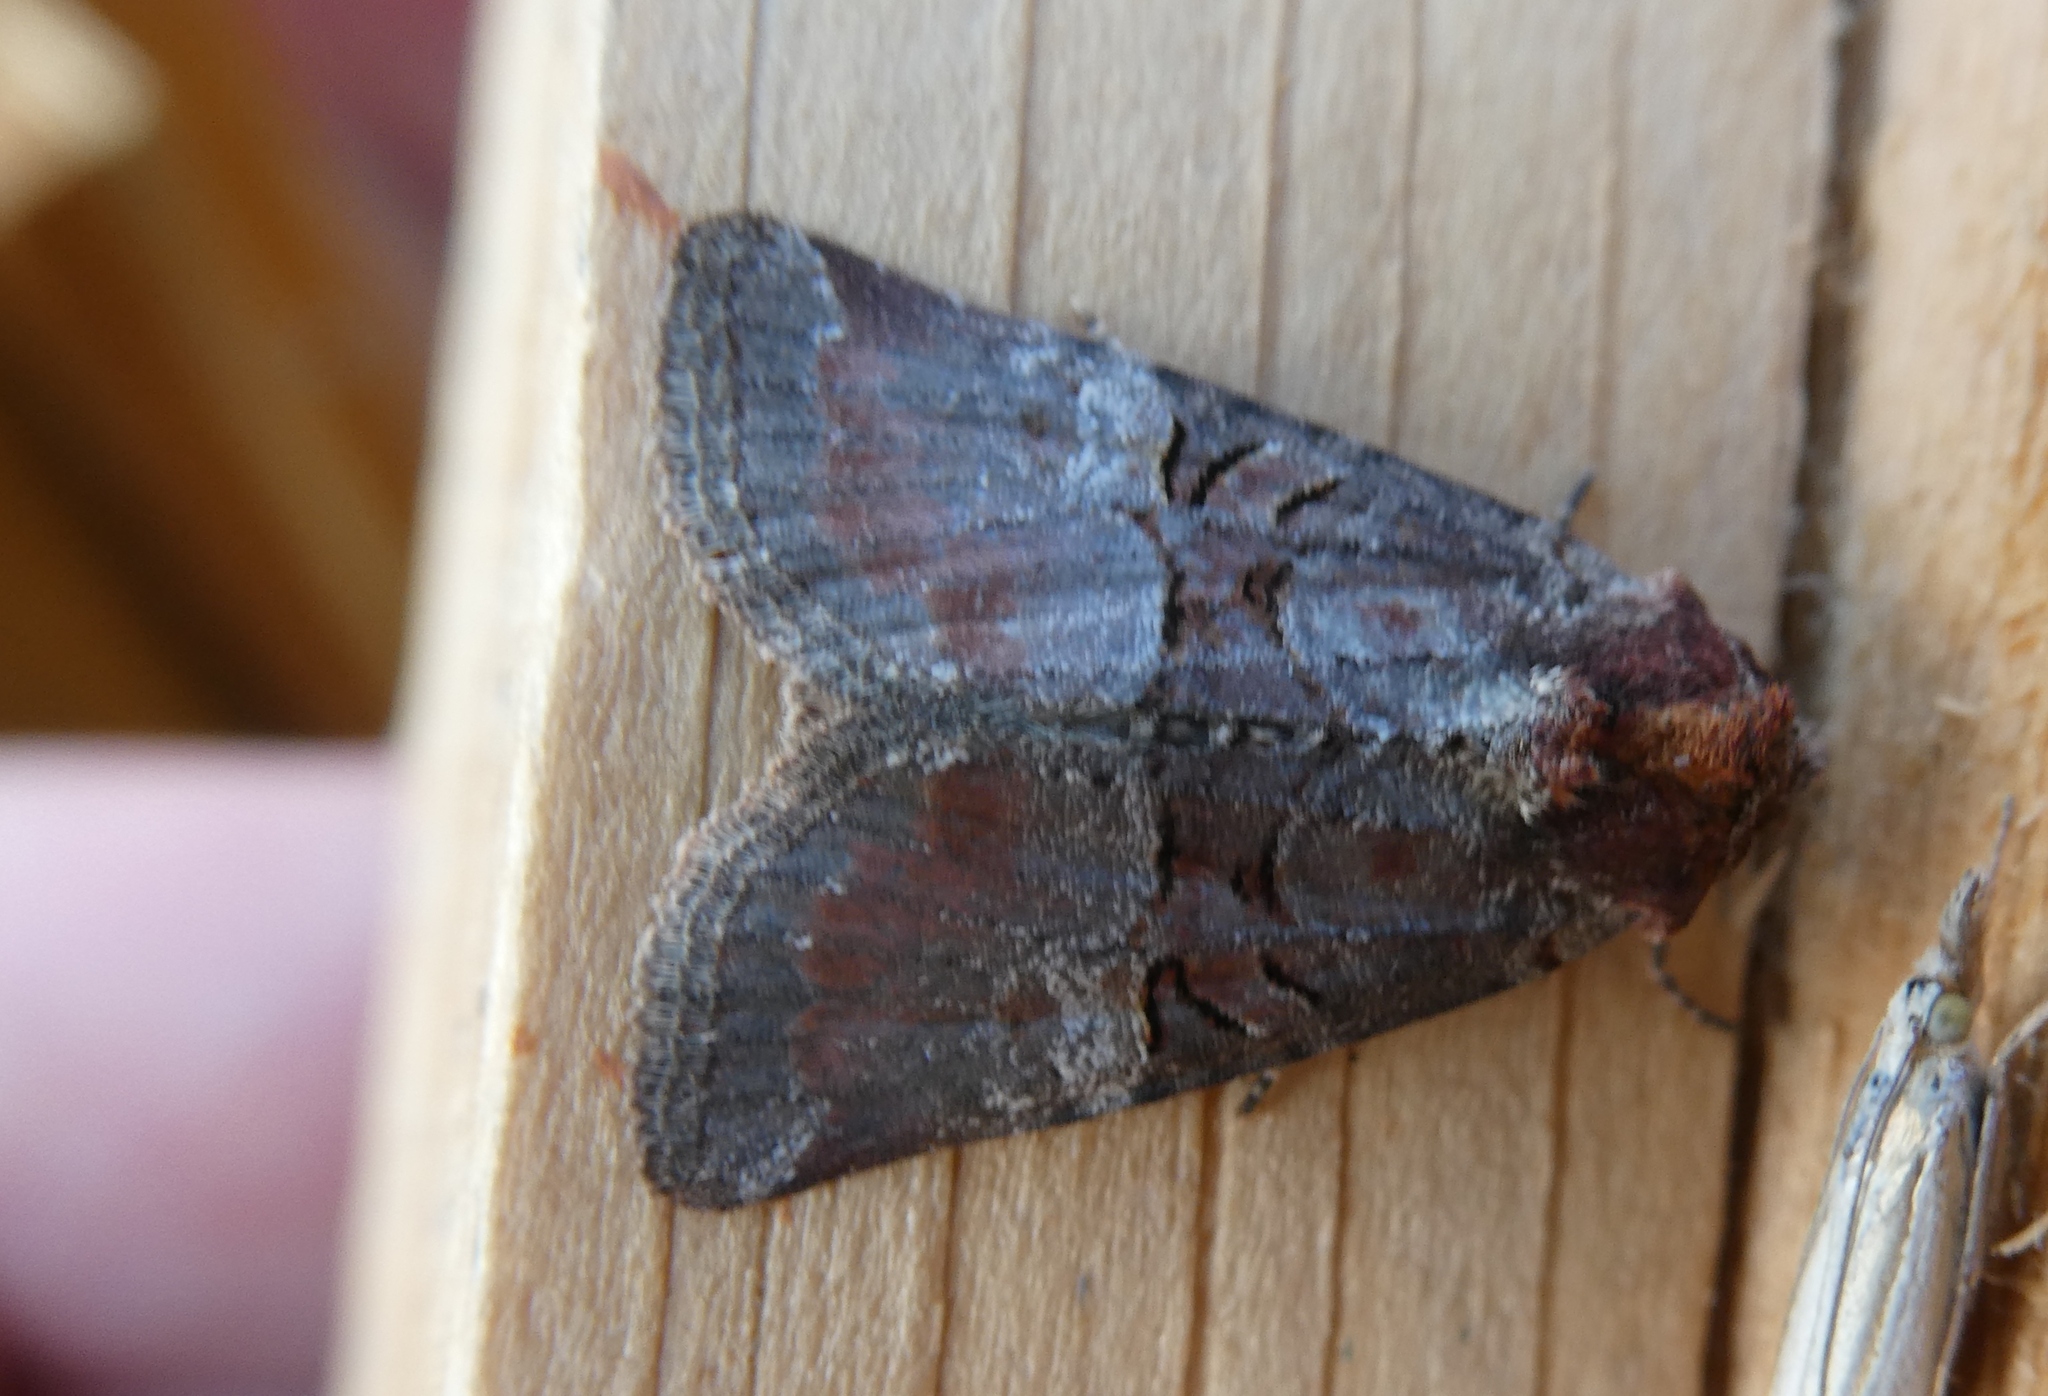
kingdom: Animalia
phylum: Arthropoda
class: Insecta
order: Lepidoptera
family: Noctuidae
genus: Litoligia
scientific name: Litoligia literosa
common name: Rosy minor
